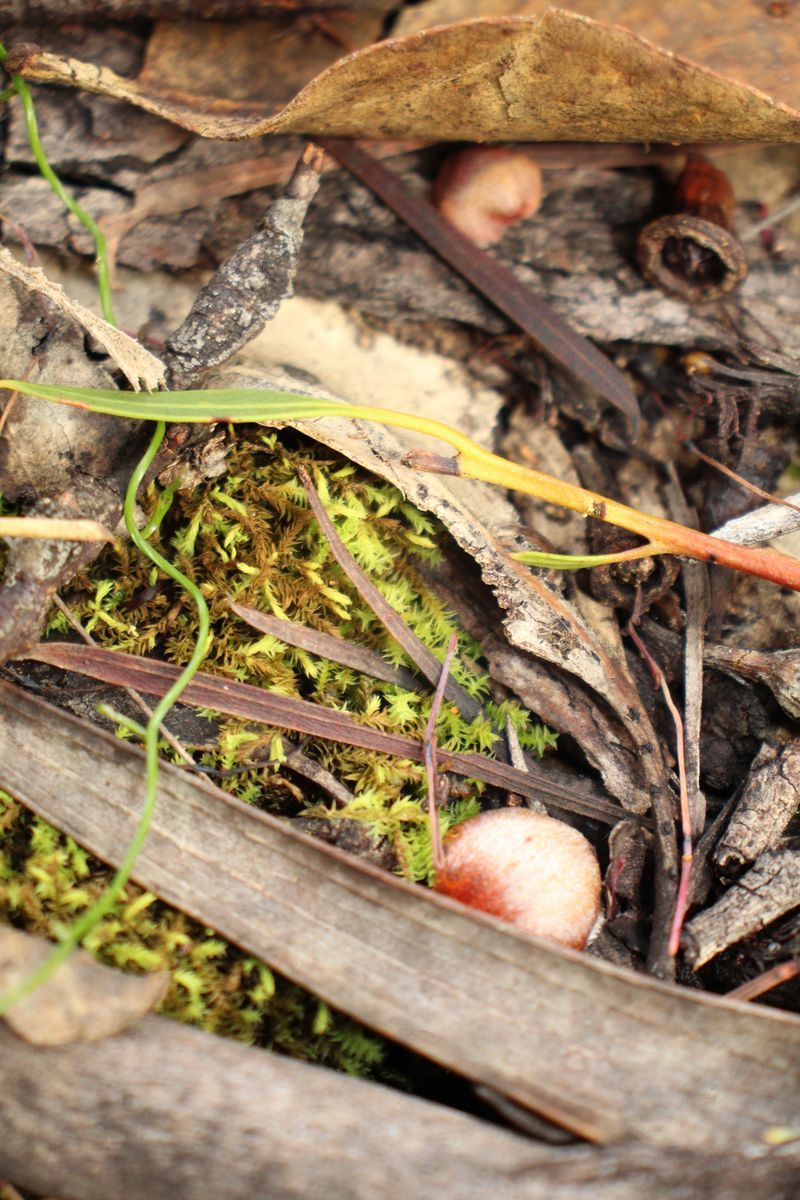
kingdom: Plantae
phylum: Bryophyta
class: Bryopsida
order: Pottiales
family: Pottiaceae
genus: Triquetrella
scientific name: Triquetrella papillata
